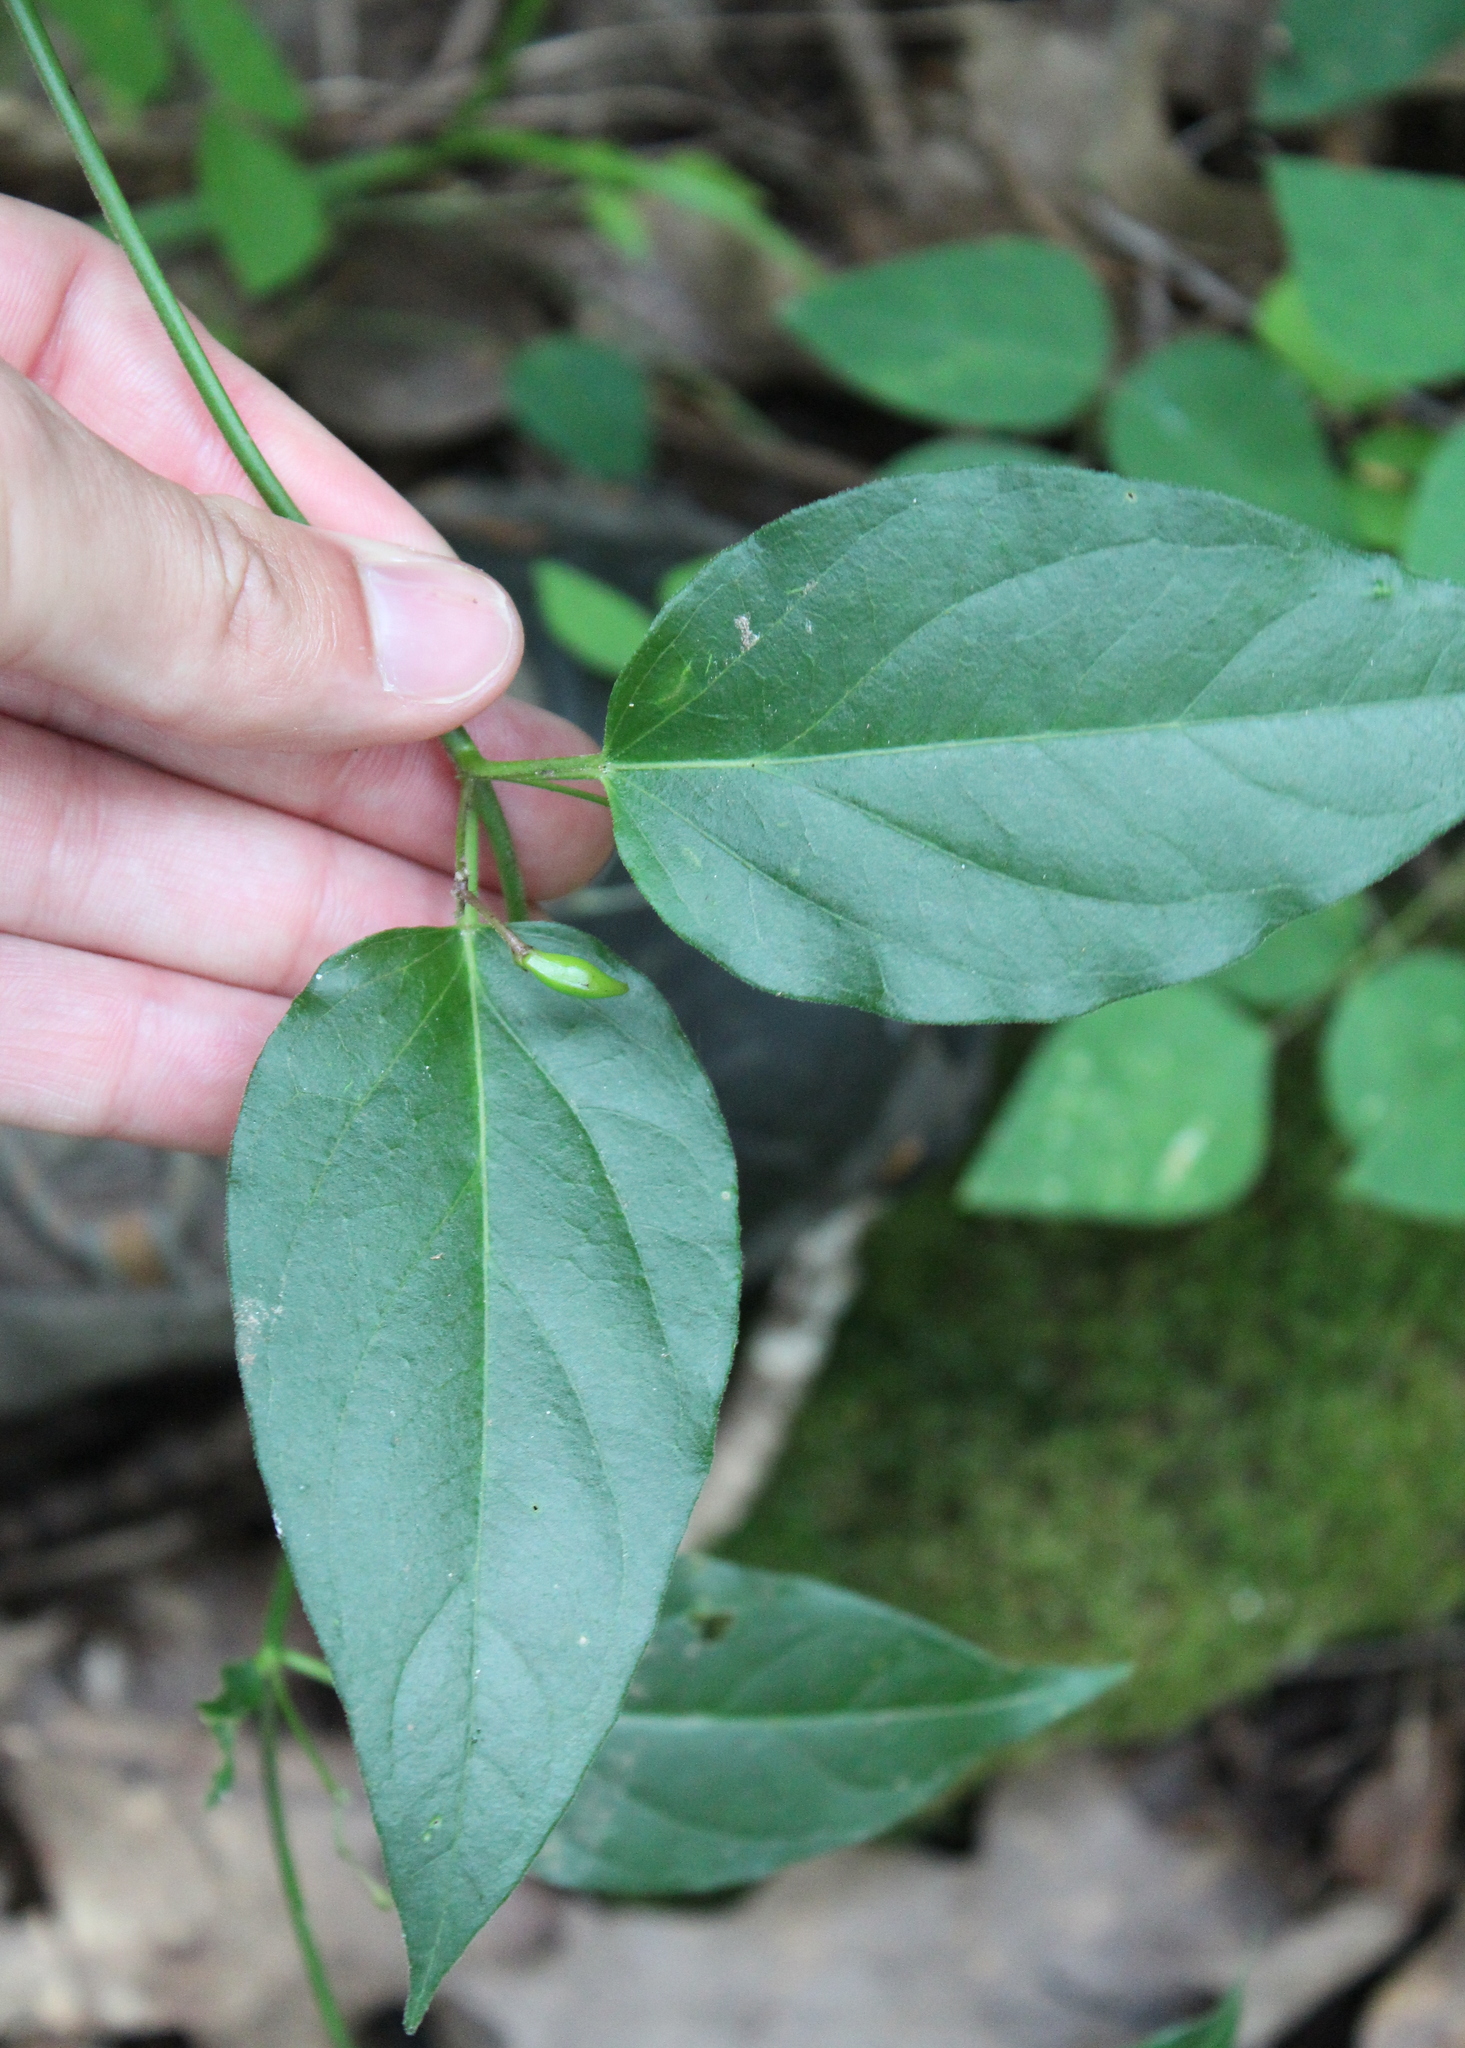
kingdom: Plantae
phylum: Tracheophyta
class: Magnoliopsida
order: Gentianales
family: Apocynaceae
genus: Vincetoxicum
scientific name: Vincetoxicum nigrum
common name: Black swallow-wort
